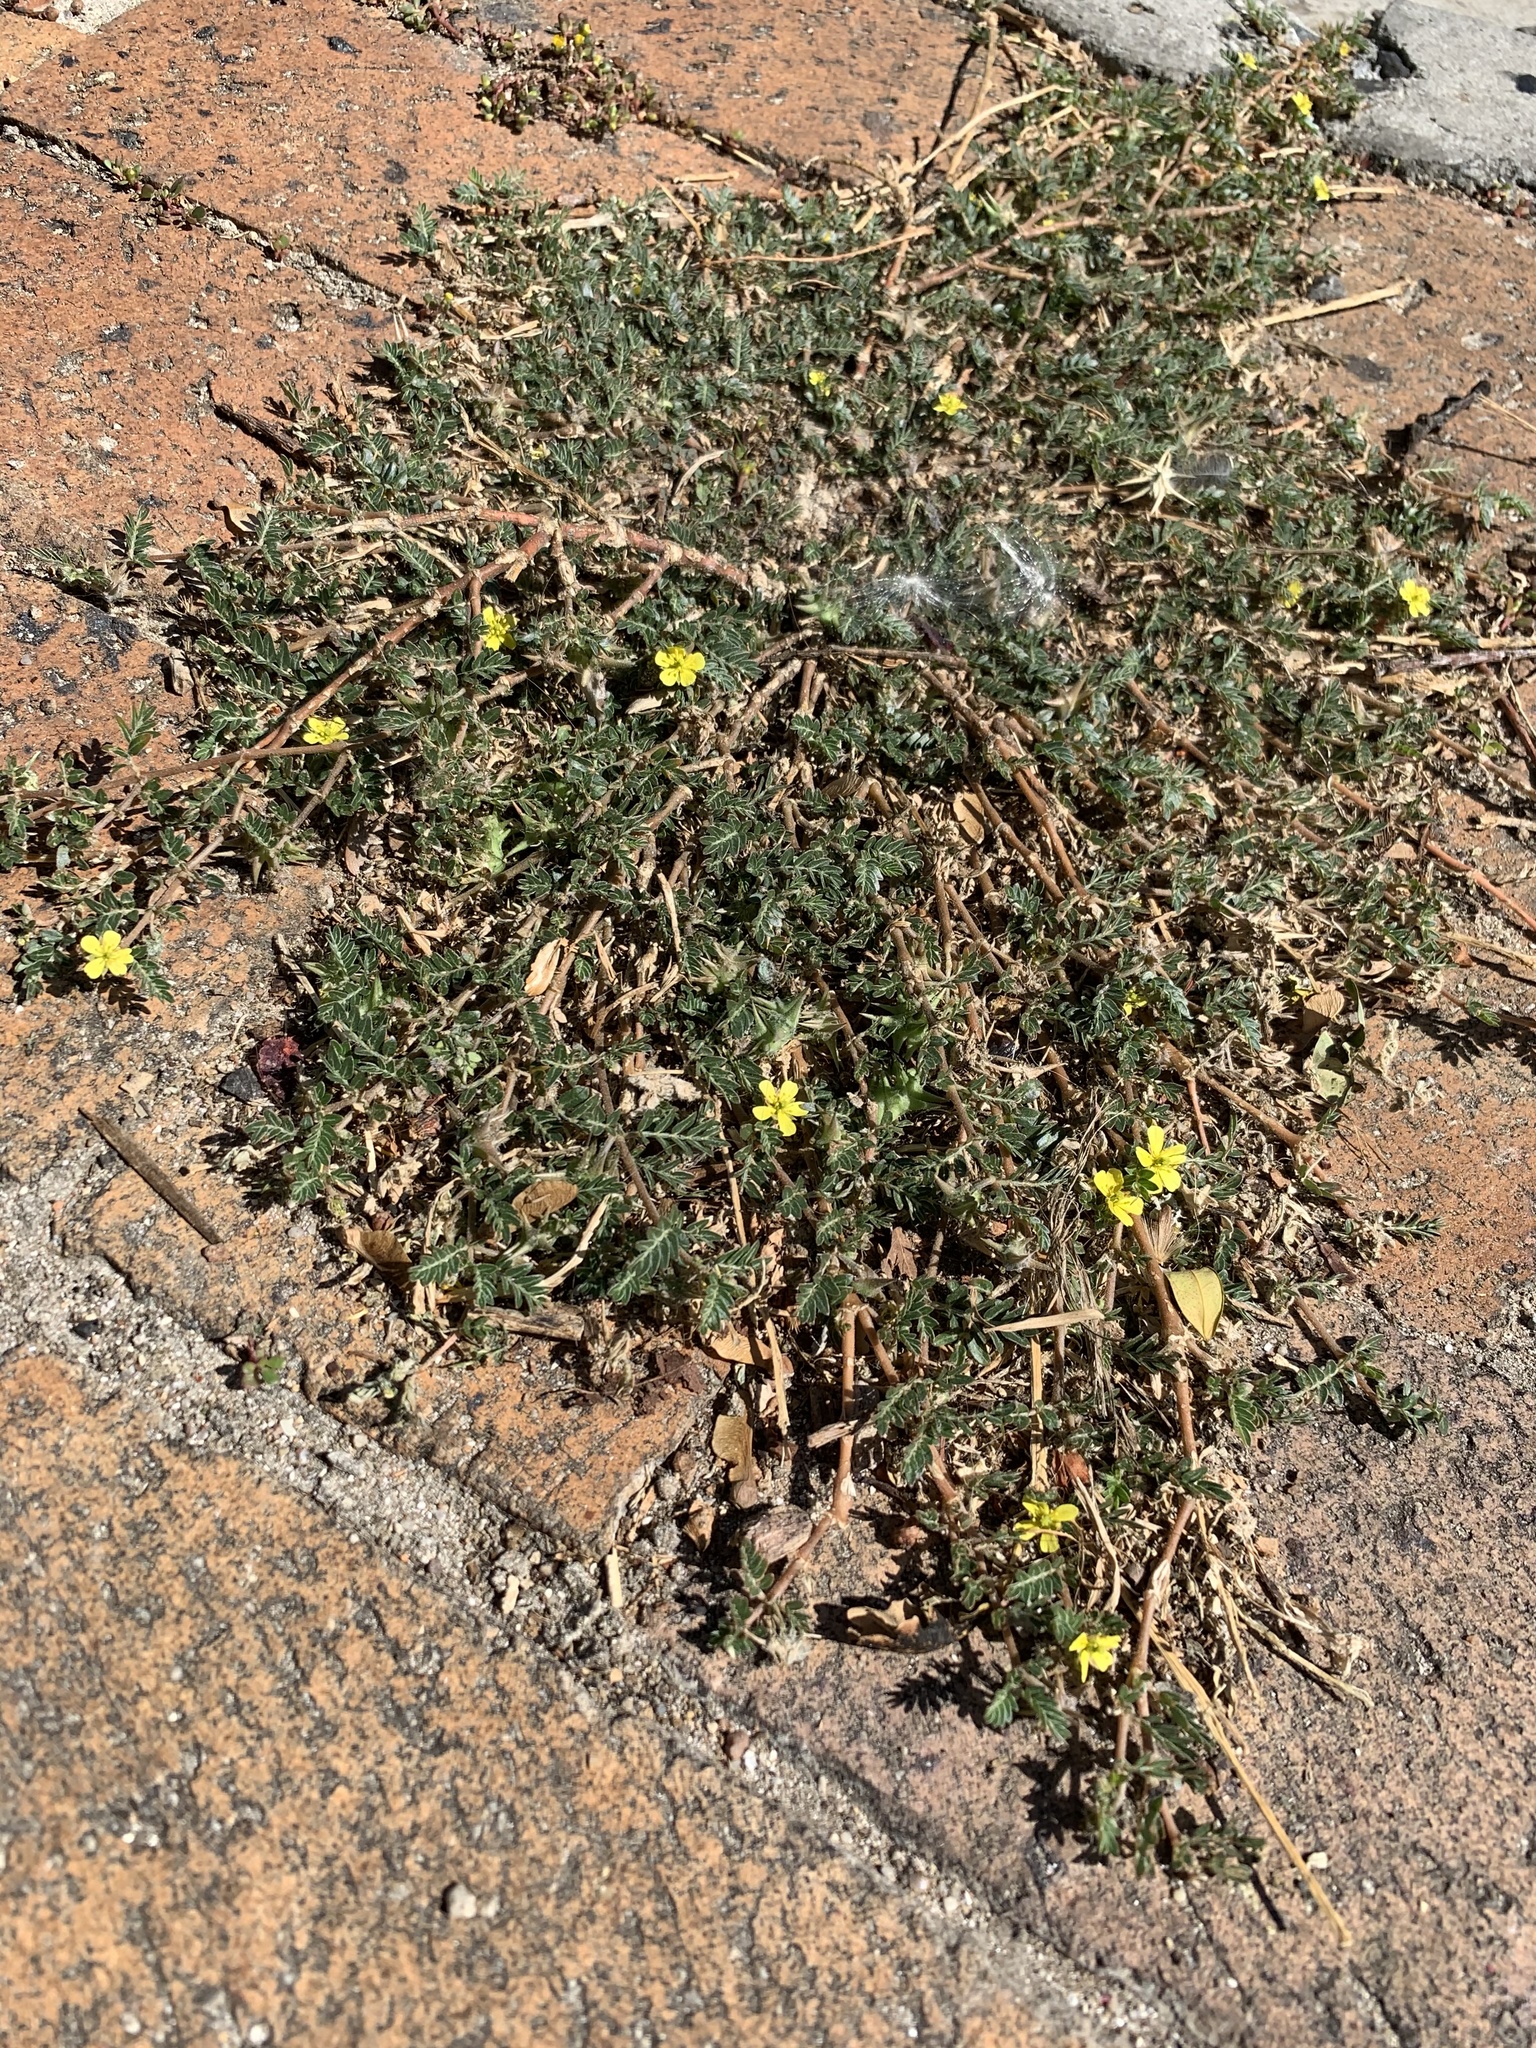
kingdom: Plantae
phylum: Tracheophyta
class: Magnoliopsida
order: Zygophyllales
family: Zygophyllaceae
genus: Tribulus
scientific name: Tribulus terrestris
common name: Puncturevine
